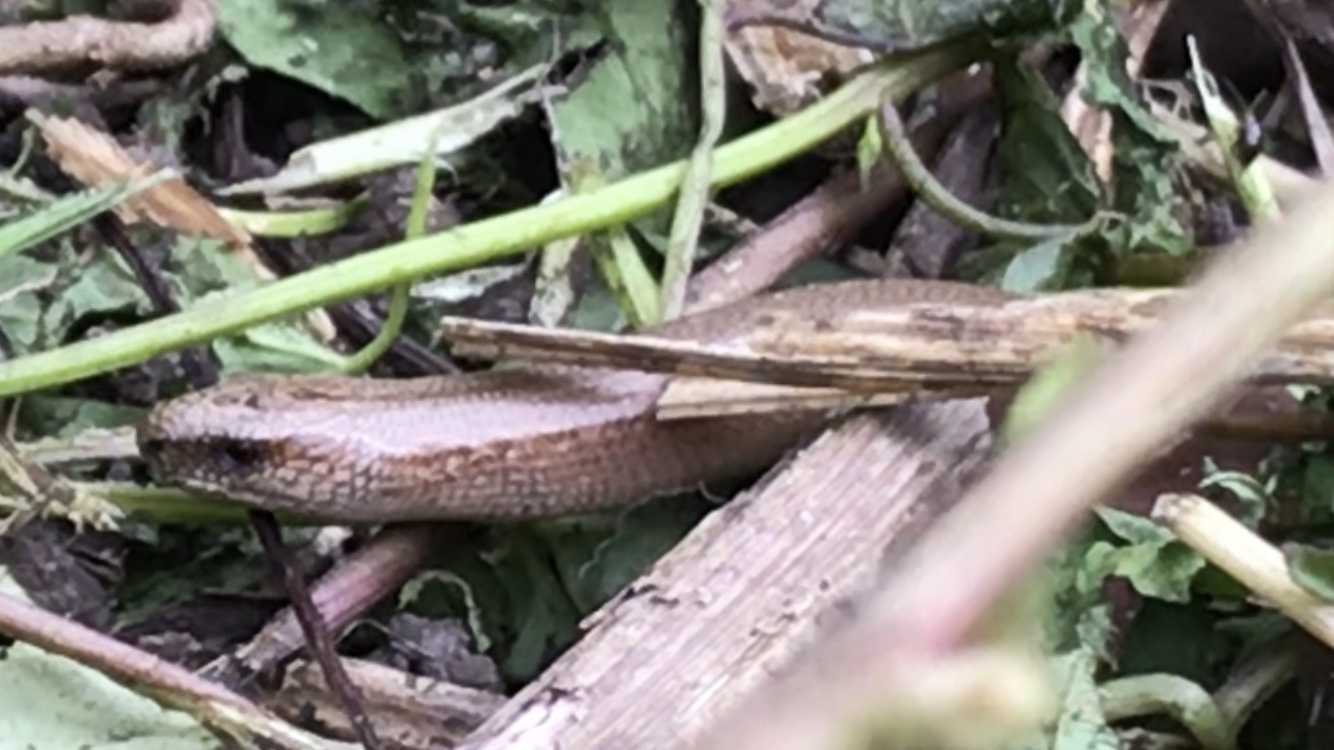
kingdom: Animalia
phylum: Chordata
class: Squamata
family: Anguidae
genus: Anguis
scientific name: Anguis fragilis
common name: Slow worm
